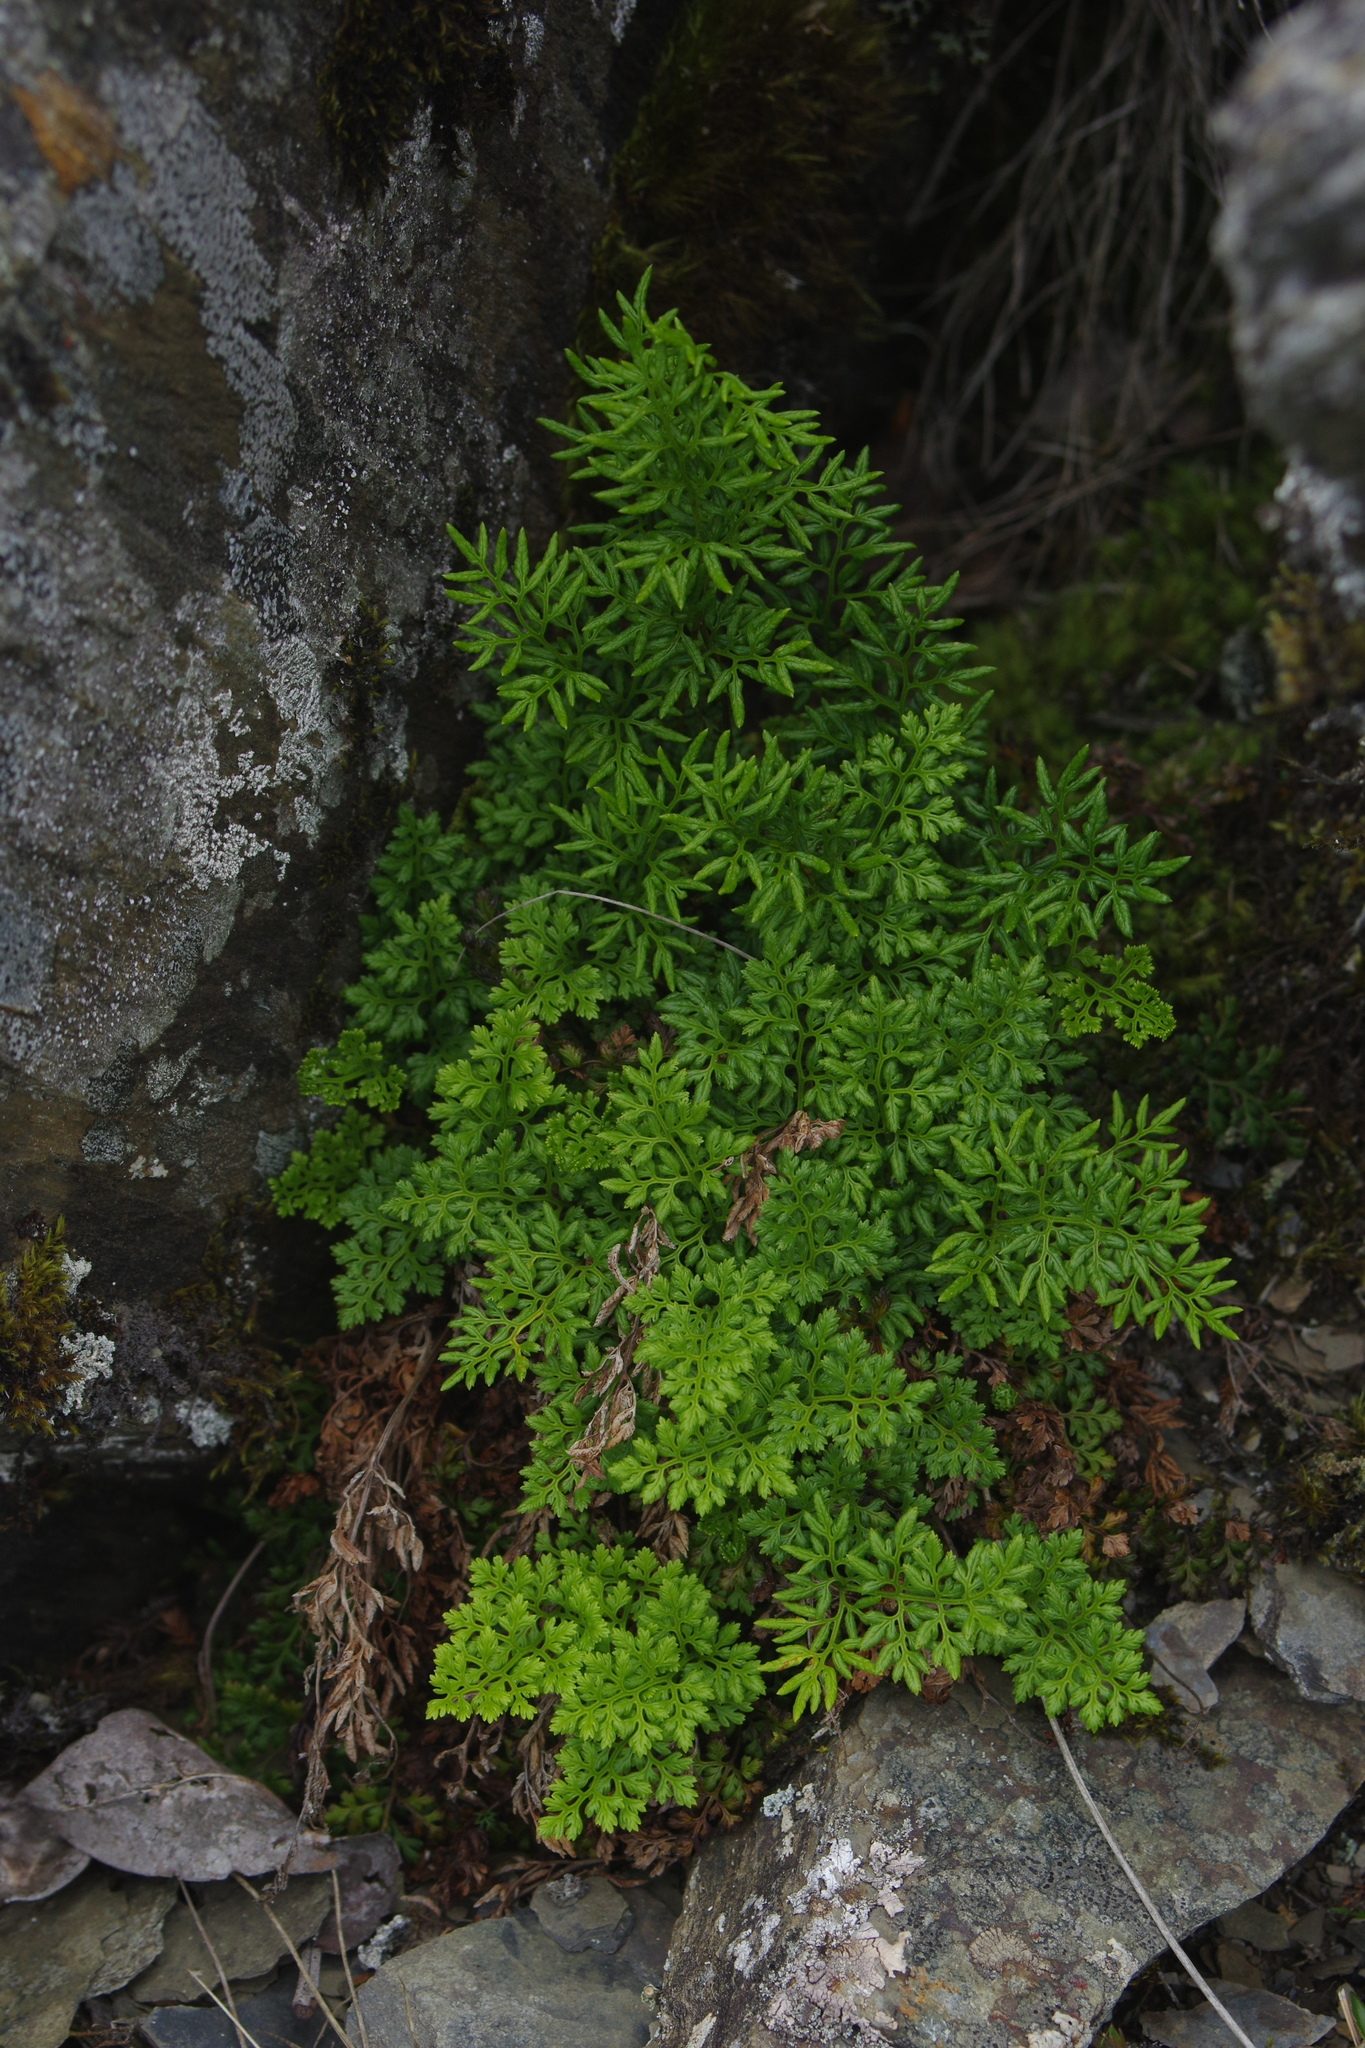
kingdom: Plantae
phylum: Tracheophyta
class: Polypodiopsida
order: Polypodiales
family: Pteridaceae
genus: Cryptogramma
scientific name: Cryptogramma brunoniana
